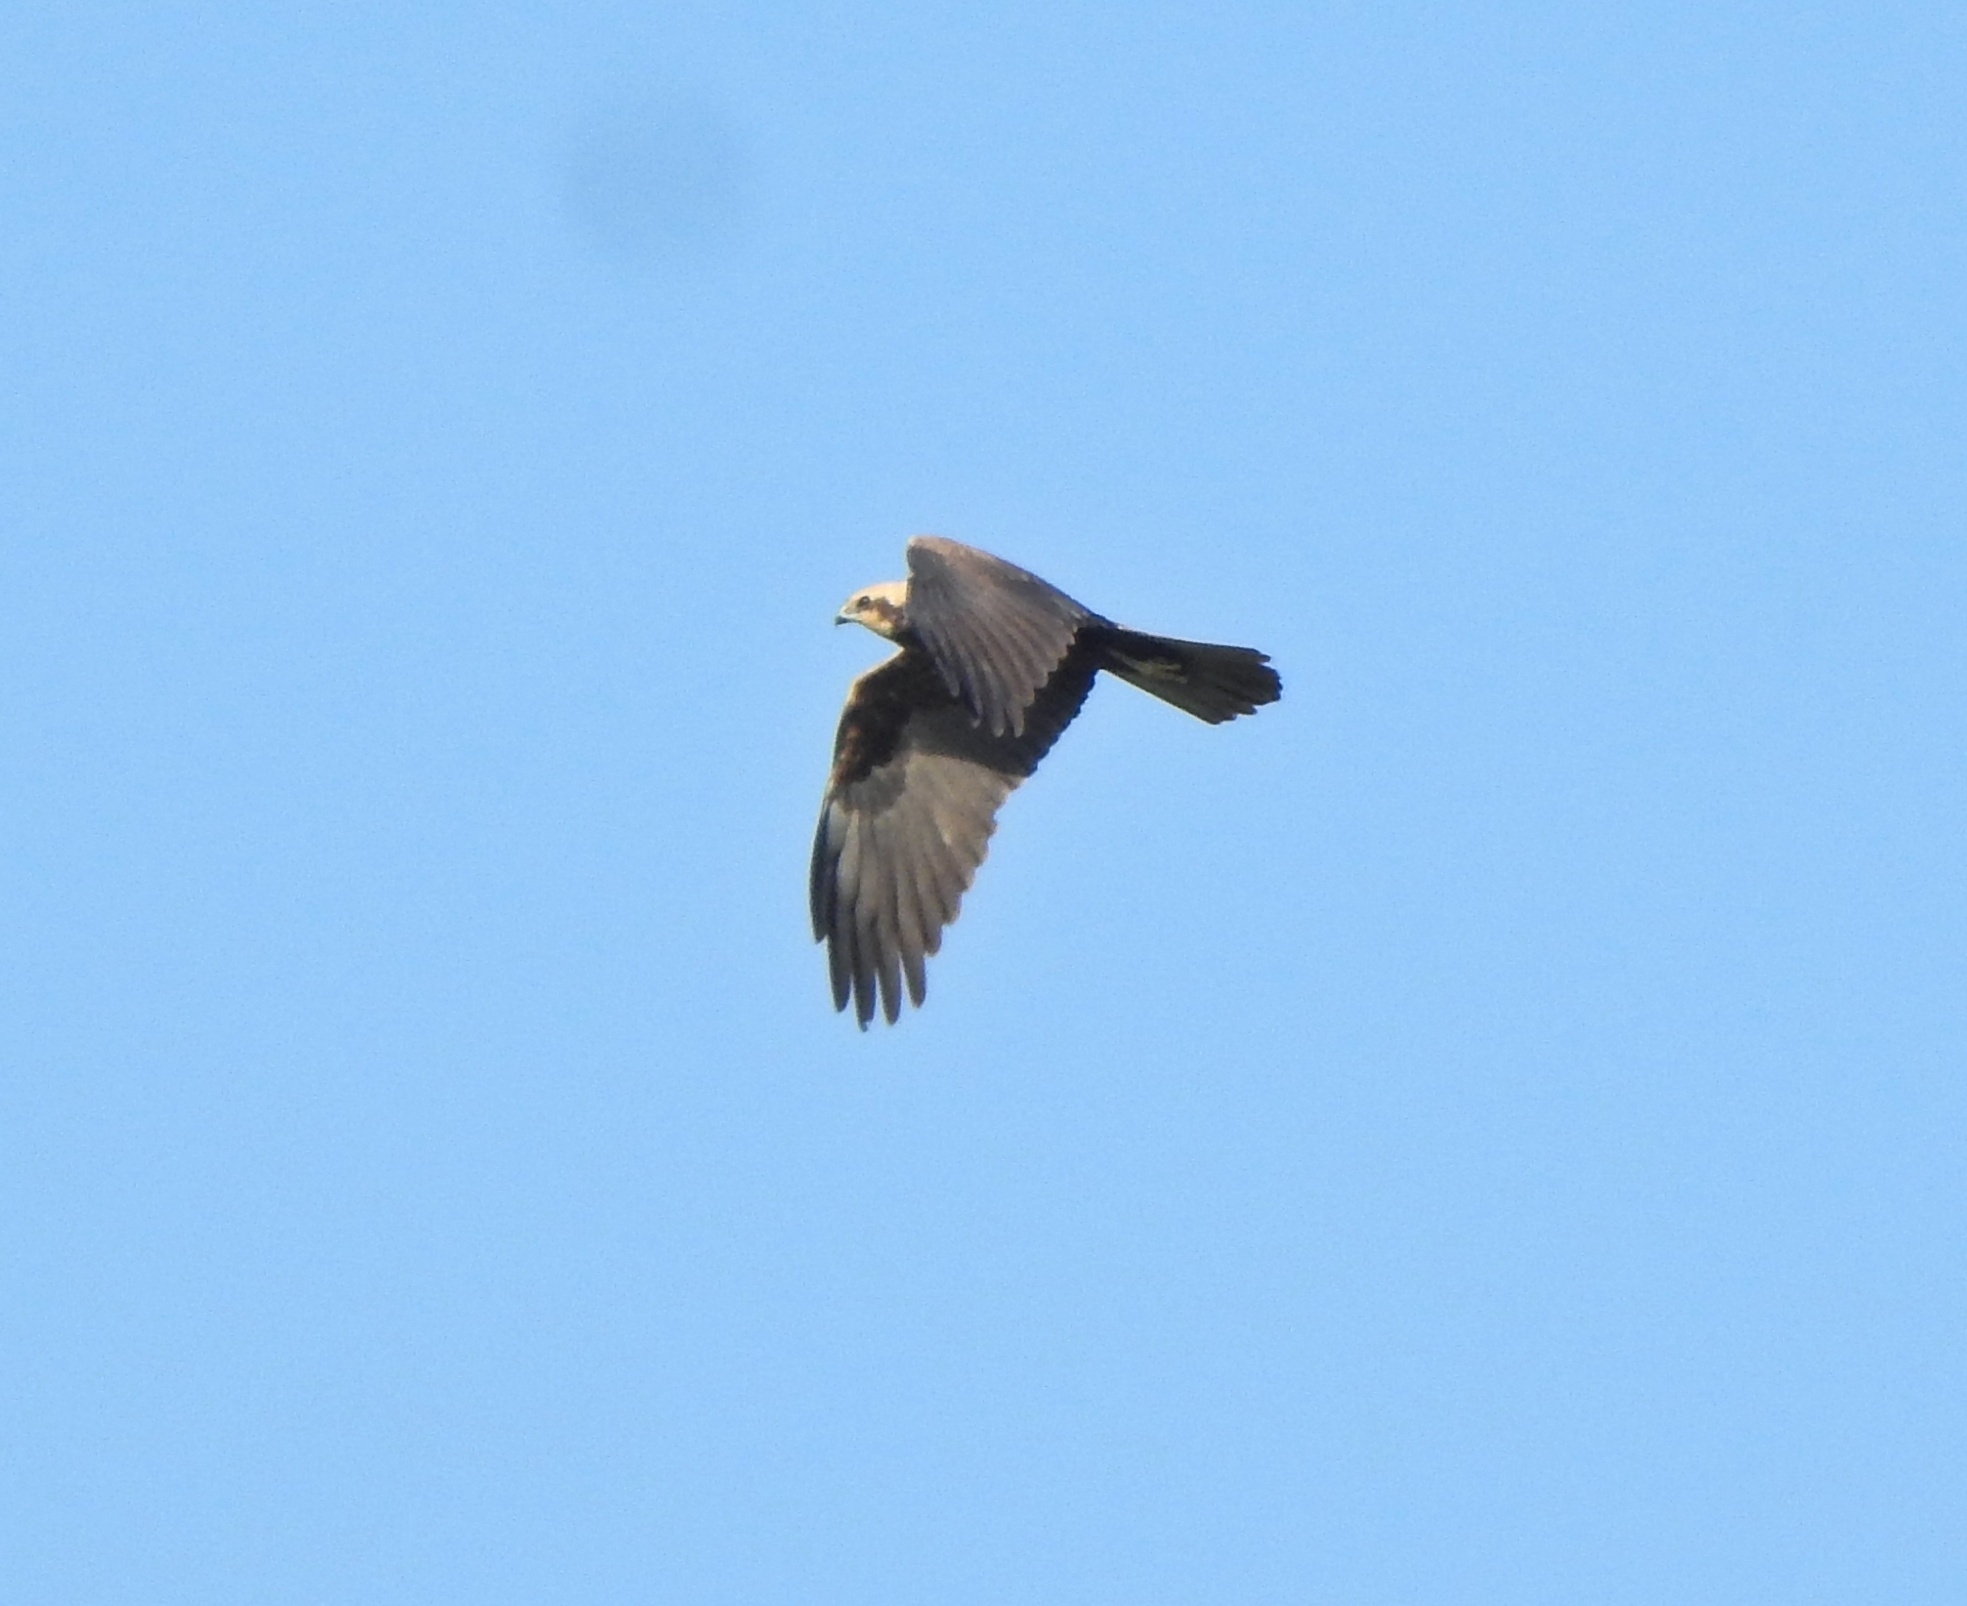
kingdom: Animalia
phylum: Chordata
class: Aves
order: Accipitriformes
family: Accipitridae
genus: Circus
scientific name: Circus aeruginosus
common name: Western marsh harrier
